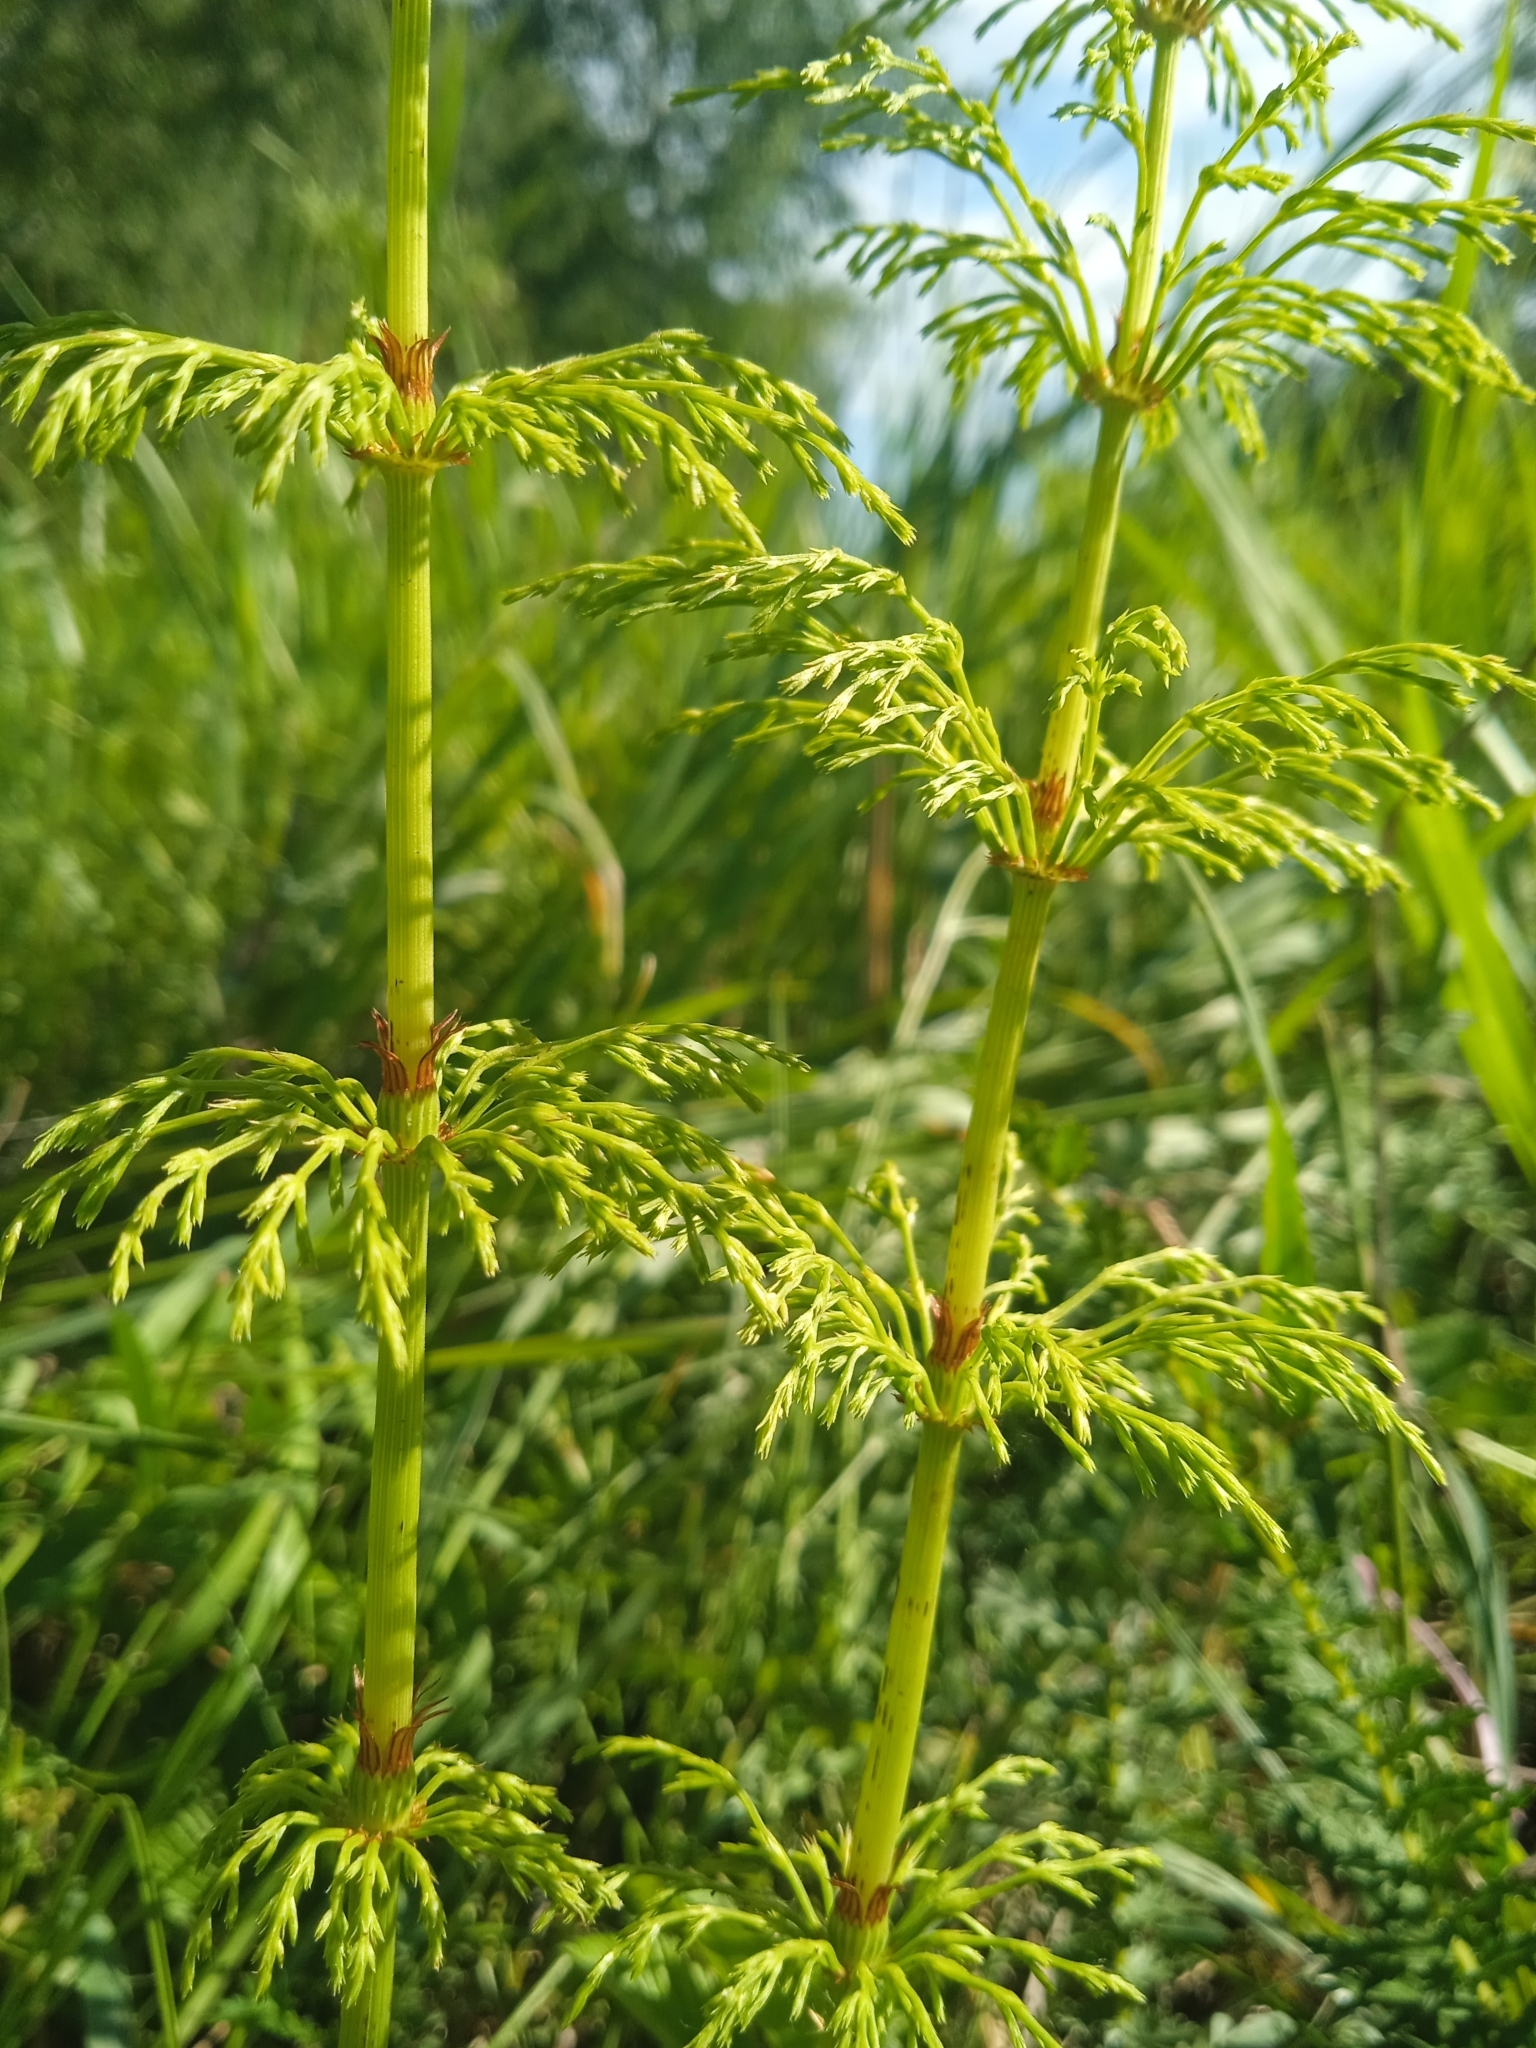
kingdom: Plantae
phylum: Tracheophyta
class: Polypodiopsida
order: Equisetales
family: Equisetaceae
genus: Equisetum
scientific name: Equisetum sylvaticum
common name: Wood horsetail
